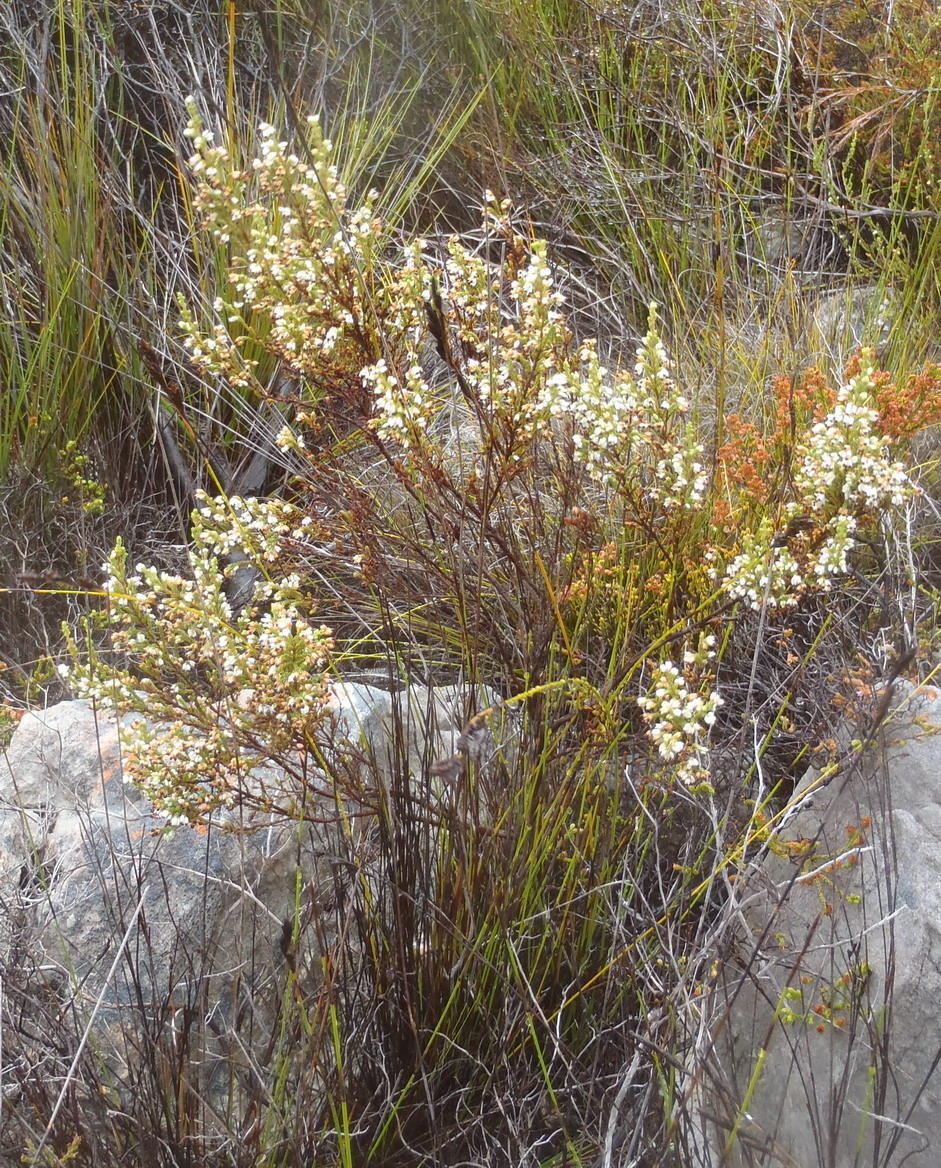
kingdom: Plantae
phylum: Tracheophyta
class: Magnoliopsida
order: Ericales
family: Ericaceae
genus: Erica
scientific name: Erica imbricata
